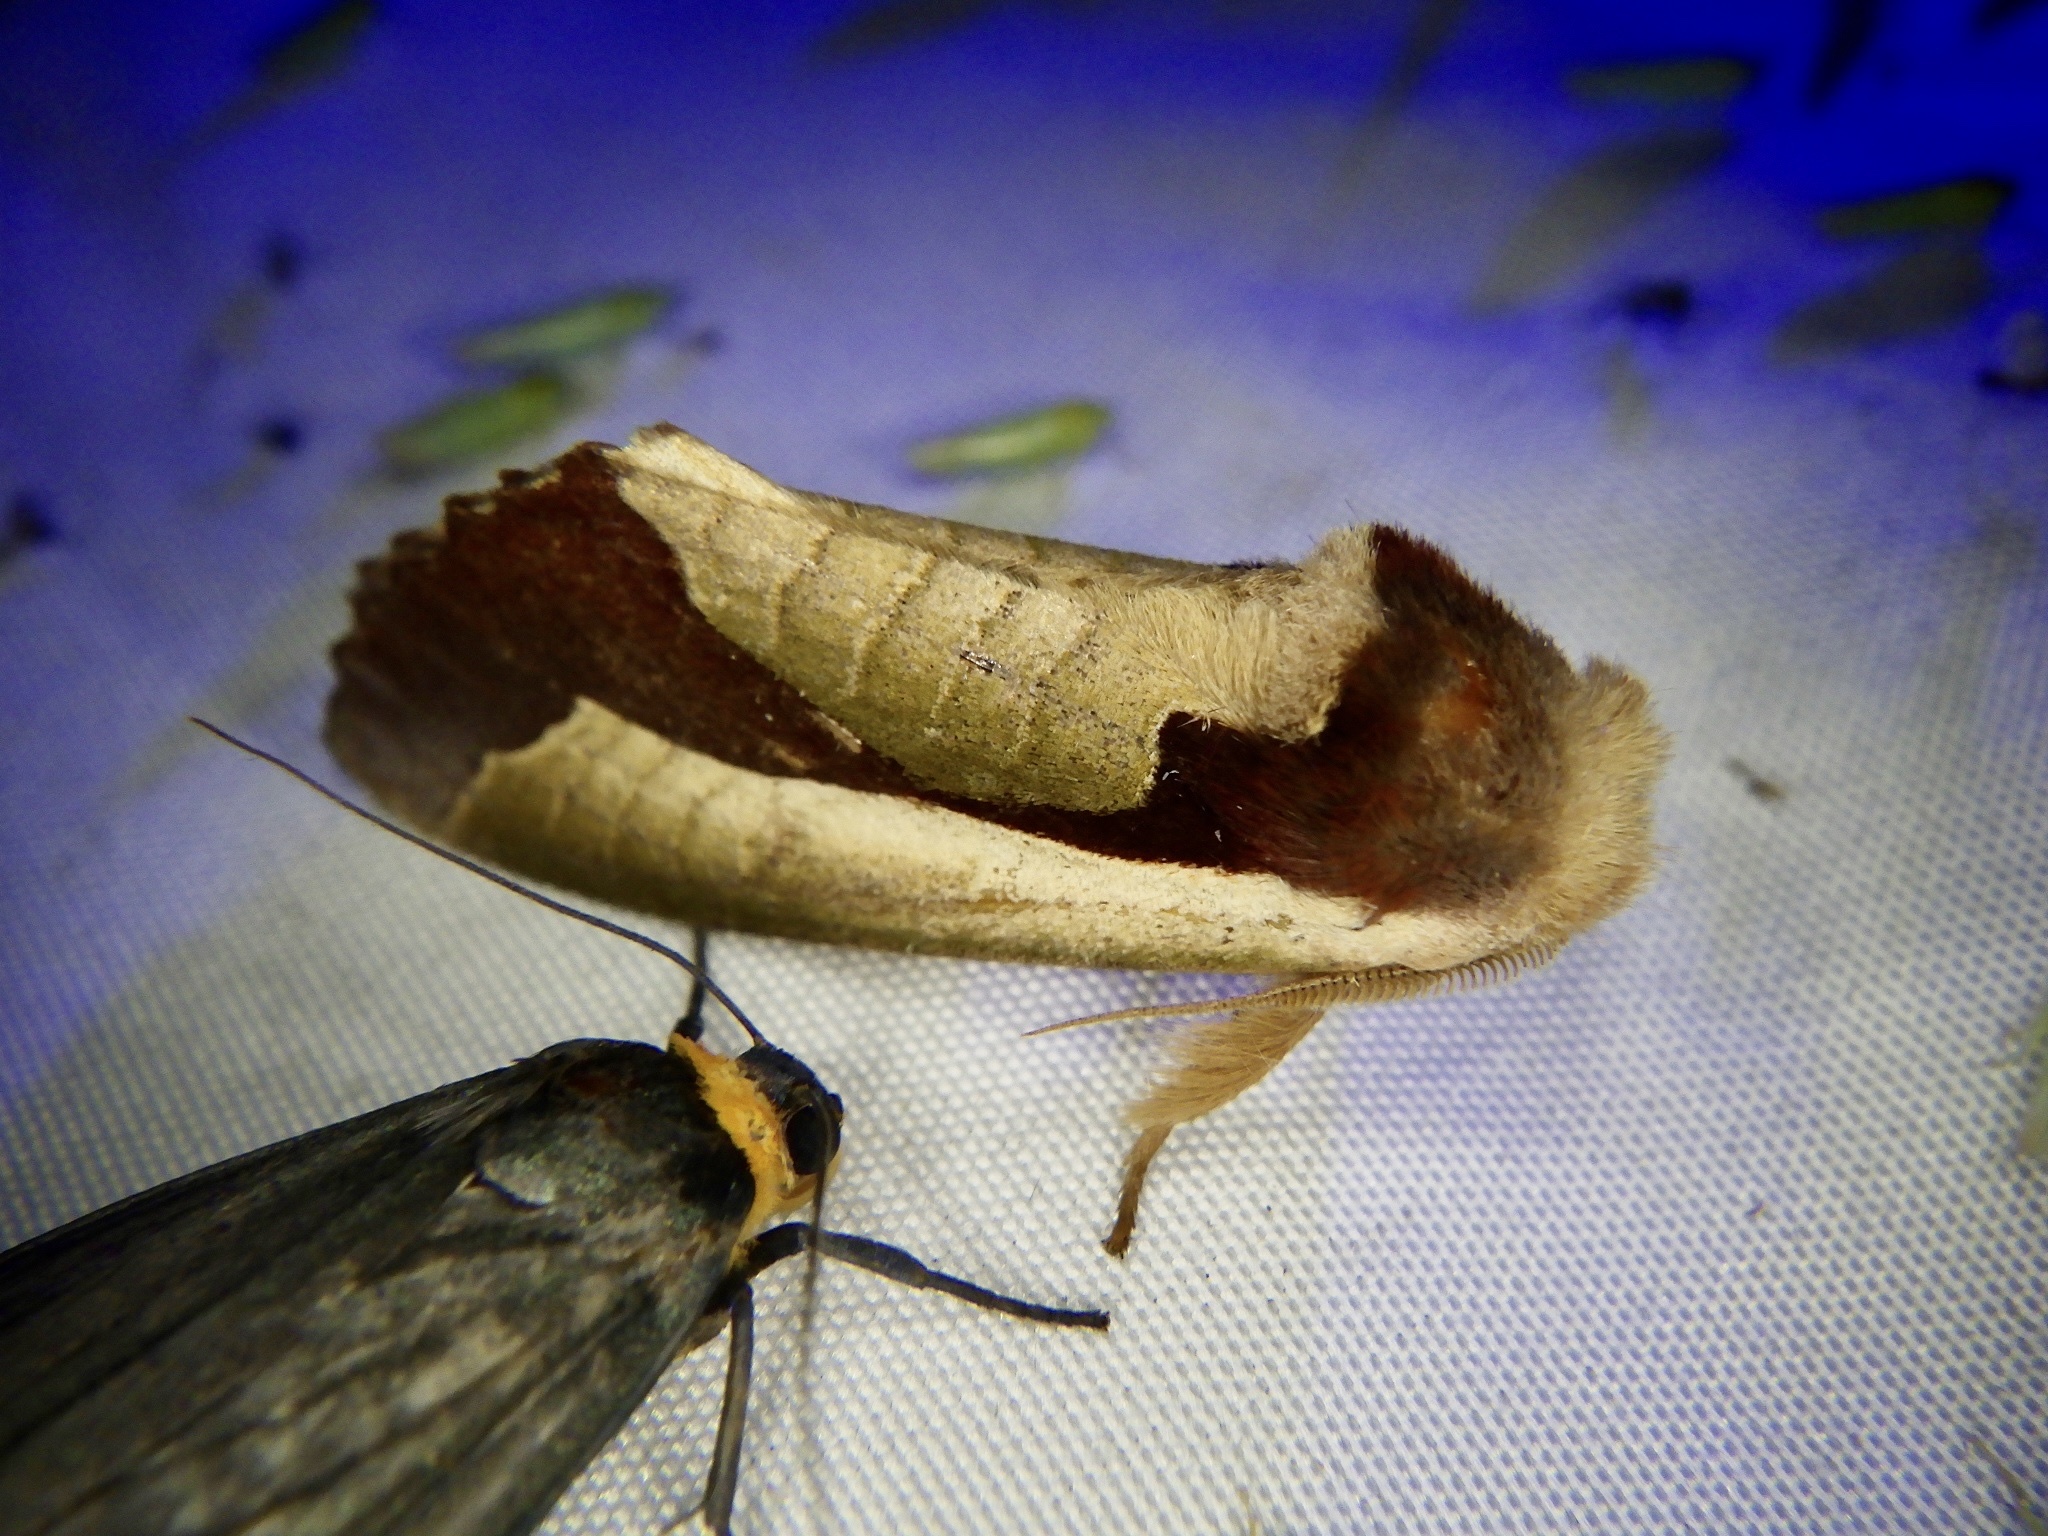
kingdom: Animalia
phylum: Arthropoda
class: Insecta
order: Lepidoptera
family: Notodontidae
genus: Uropyia
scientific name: Uropyia meticulodina
